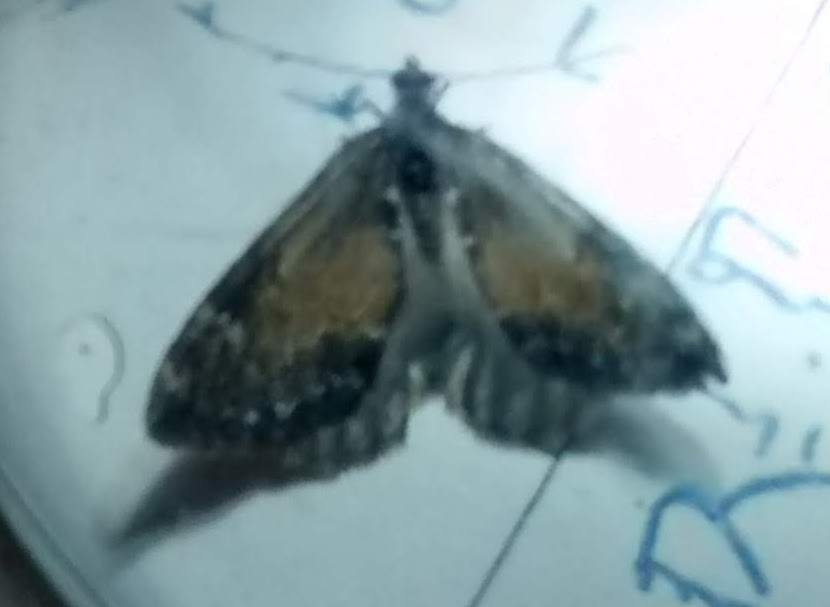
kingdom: Animalia
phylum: Arthropoda
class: Insecta
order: Lepidoptera
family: Geometridae
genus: Dysstroma
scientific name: Dysstroma truncata
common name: Common marbled carpet
